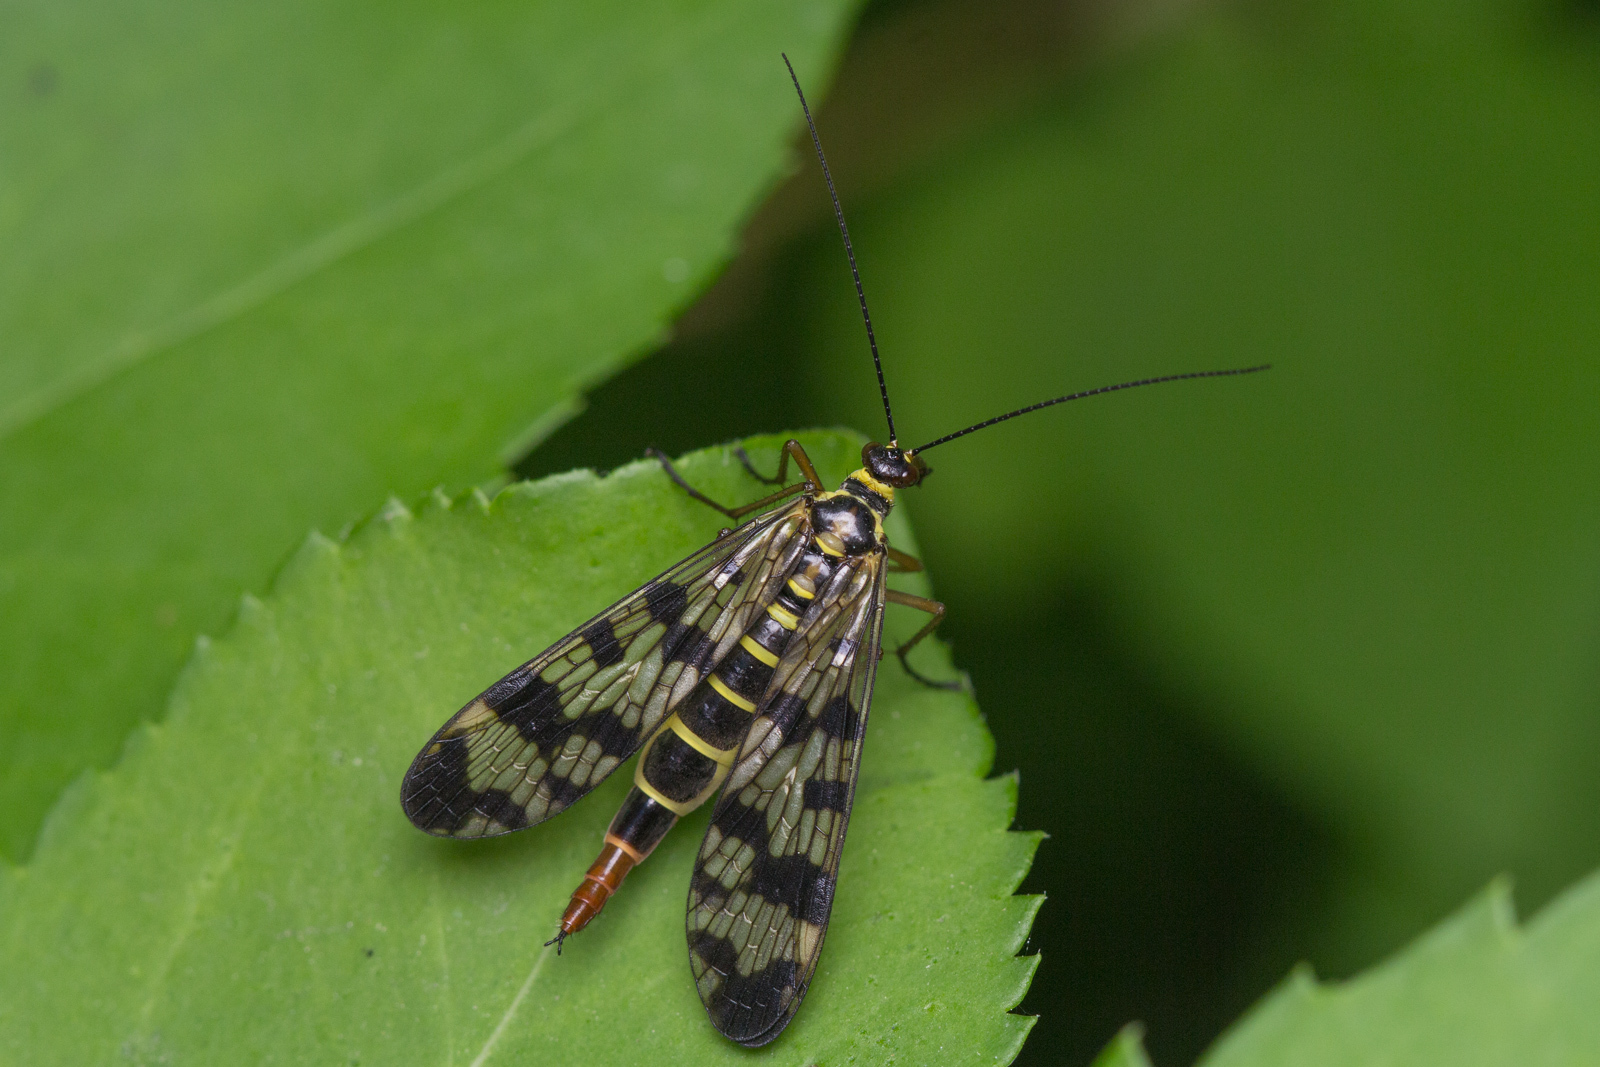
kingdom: Animalia
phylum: Arthropoda
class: Insecta
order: Mecoptera
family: Panorpidae
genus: Panorpa
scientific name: Panorpa communis
